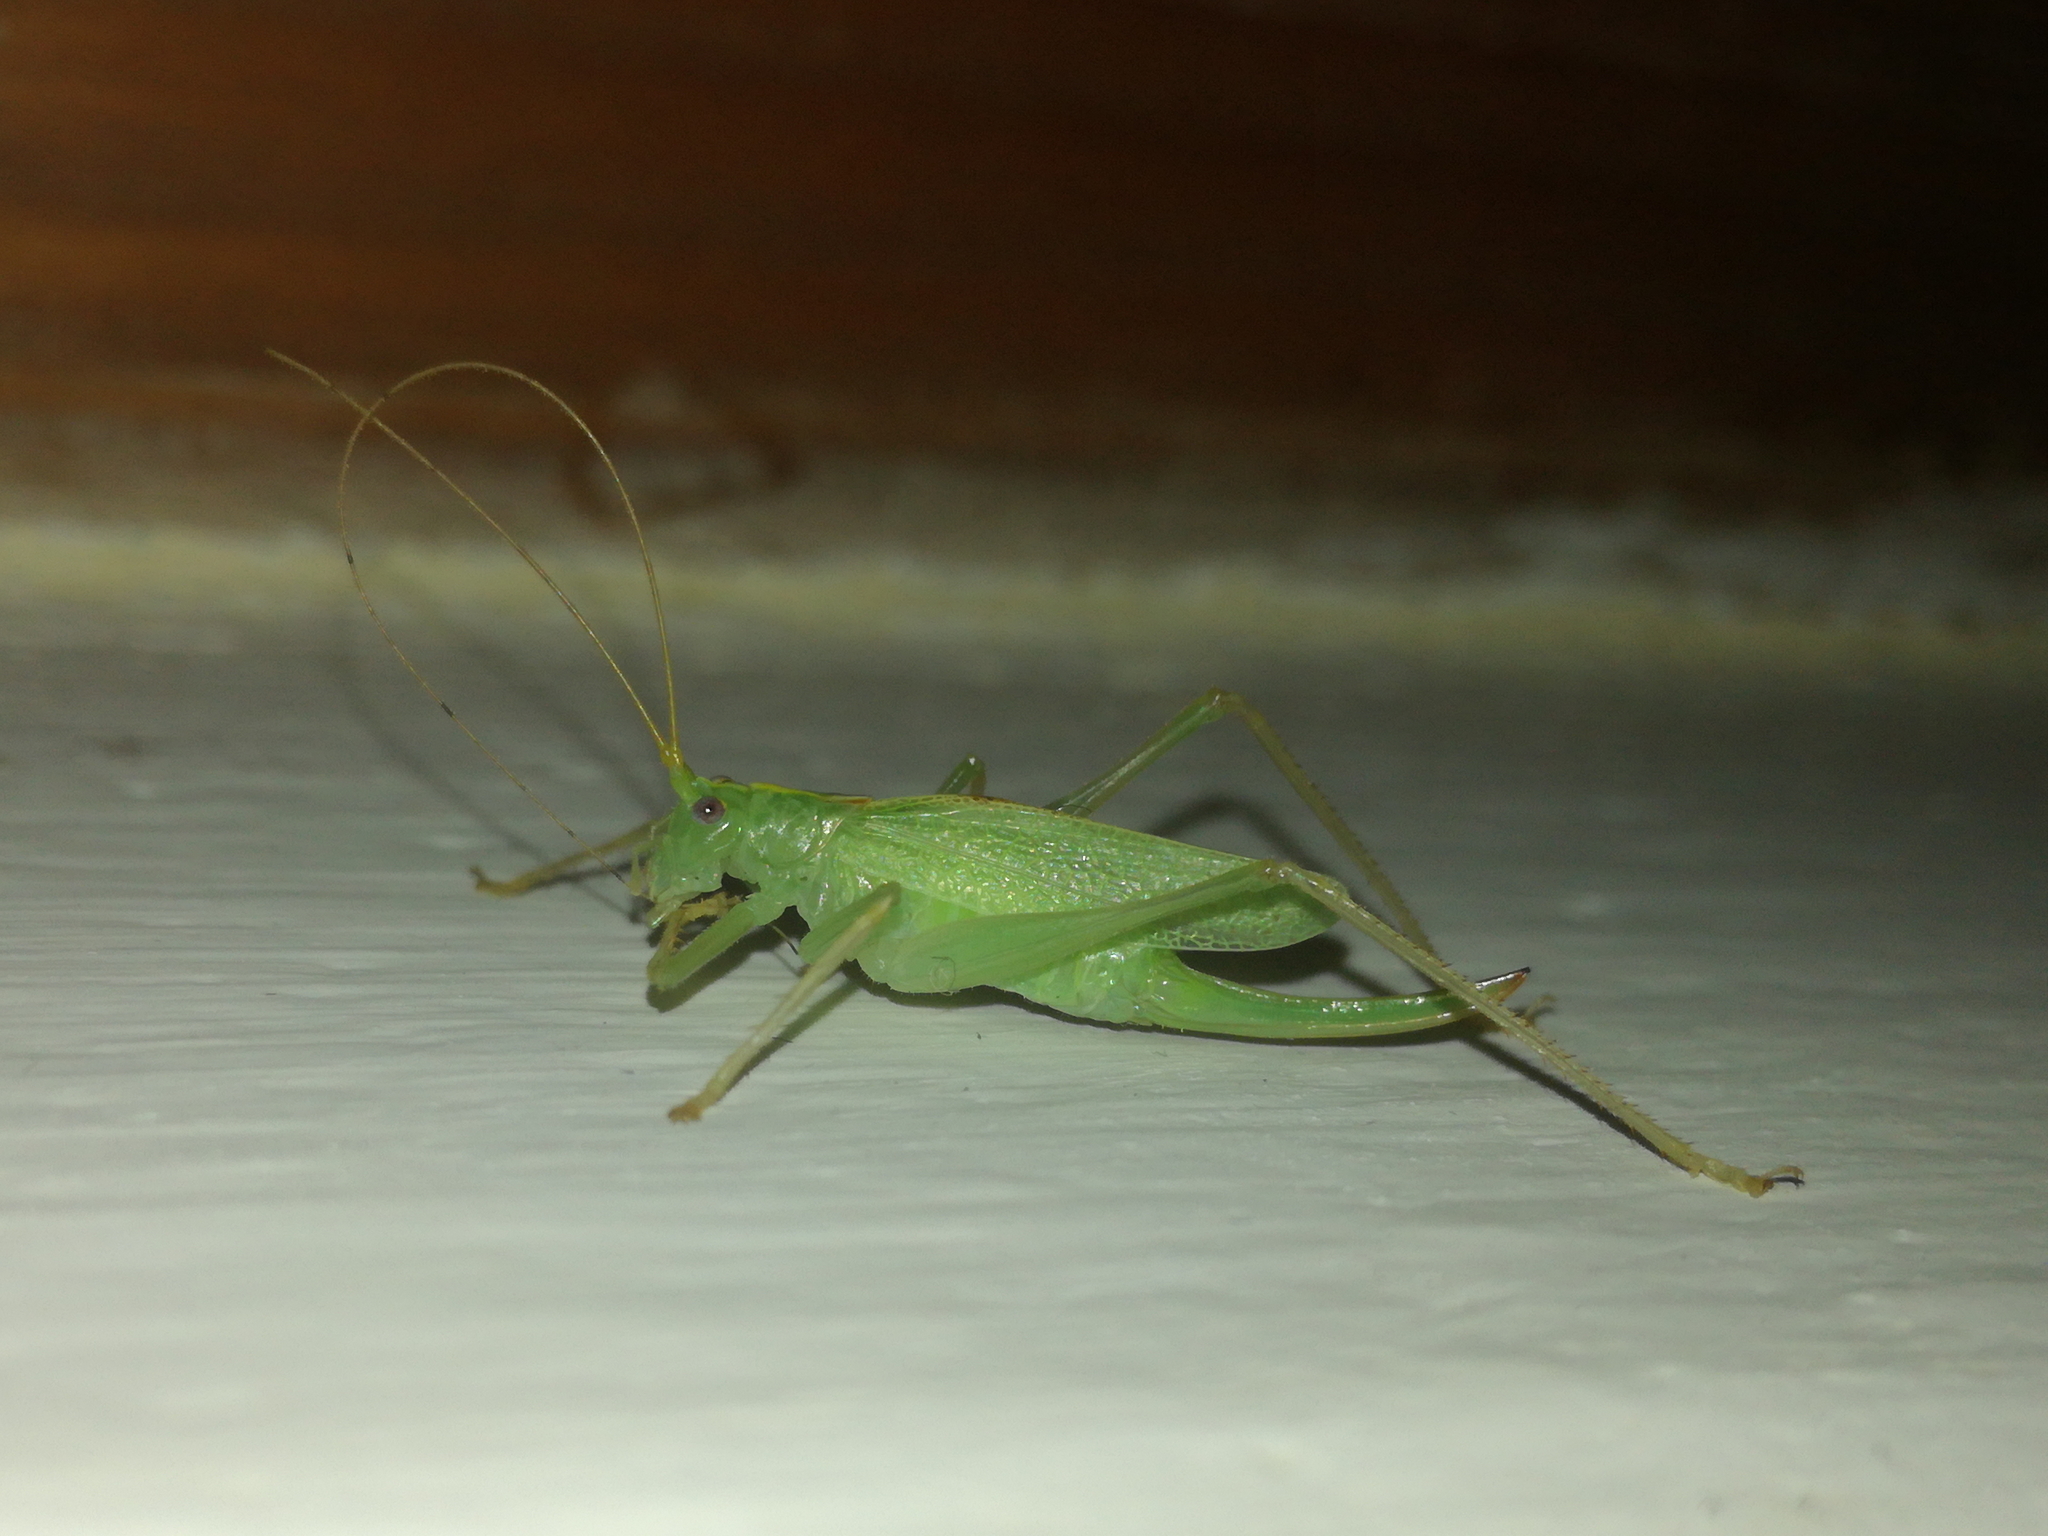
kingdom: Animalia
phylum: Arthropoda
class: Insecta
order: Orthoptera
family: Tettigoniidae
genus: Meconema
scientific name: Meconema thalassinum
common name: Oak bush-cricket
